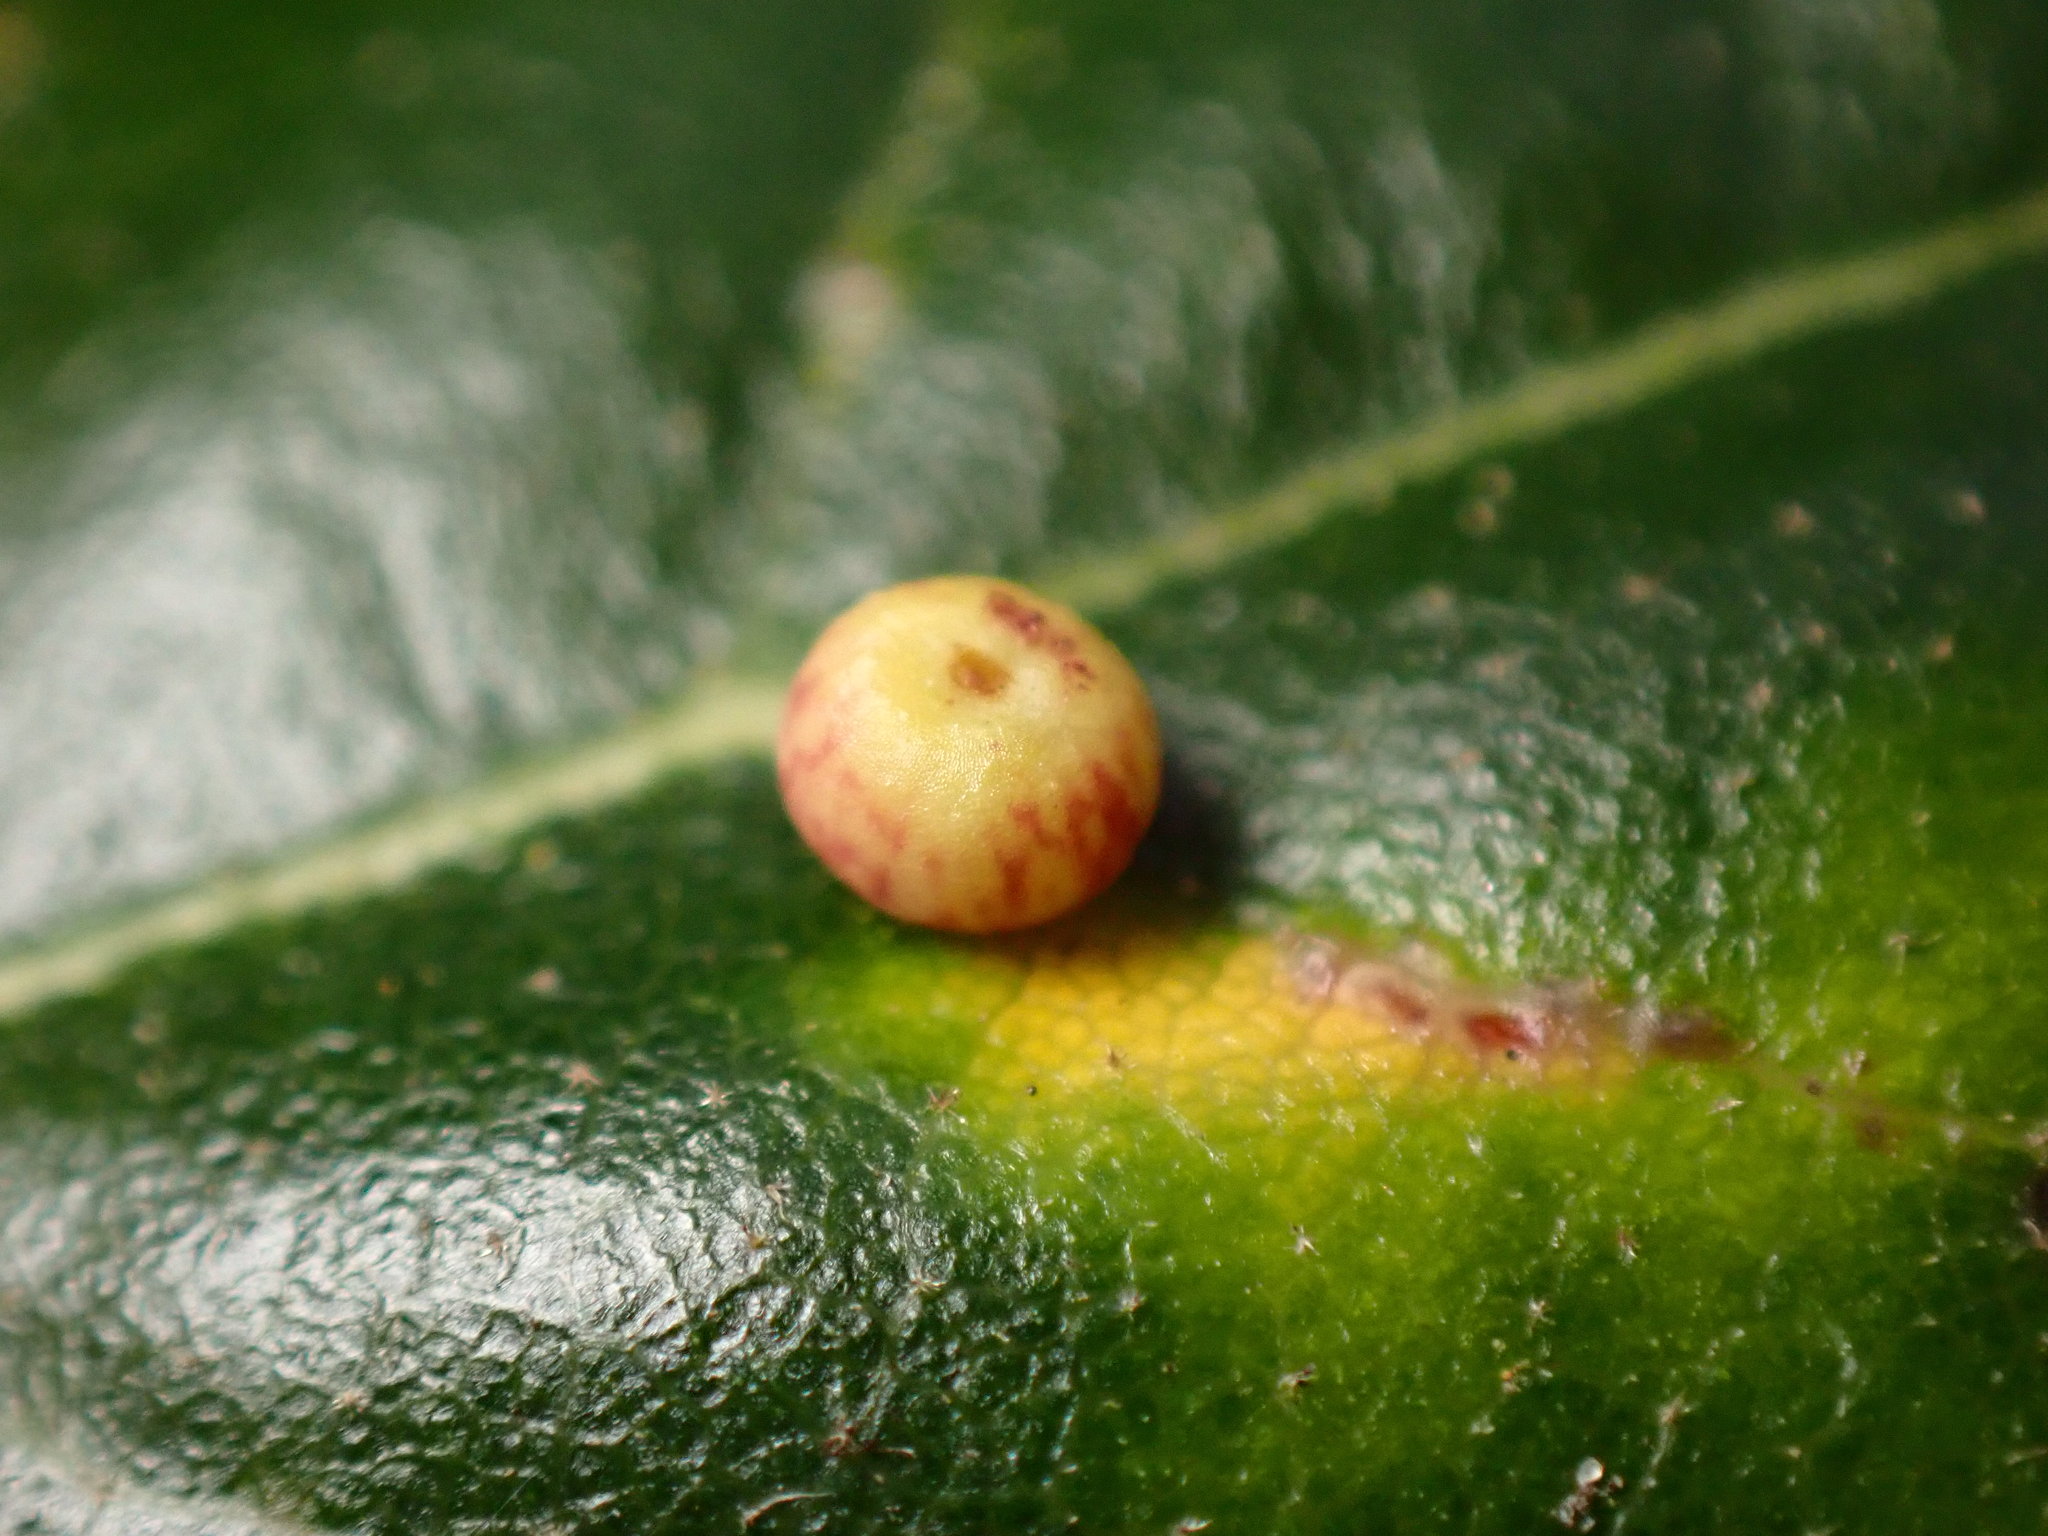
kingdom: Animalia
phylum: Arthropoda
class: Insecta
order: Hymenoptera
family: Cynipidae
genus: Dryocosmus
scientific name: Dryocosmus
